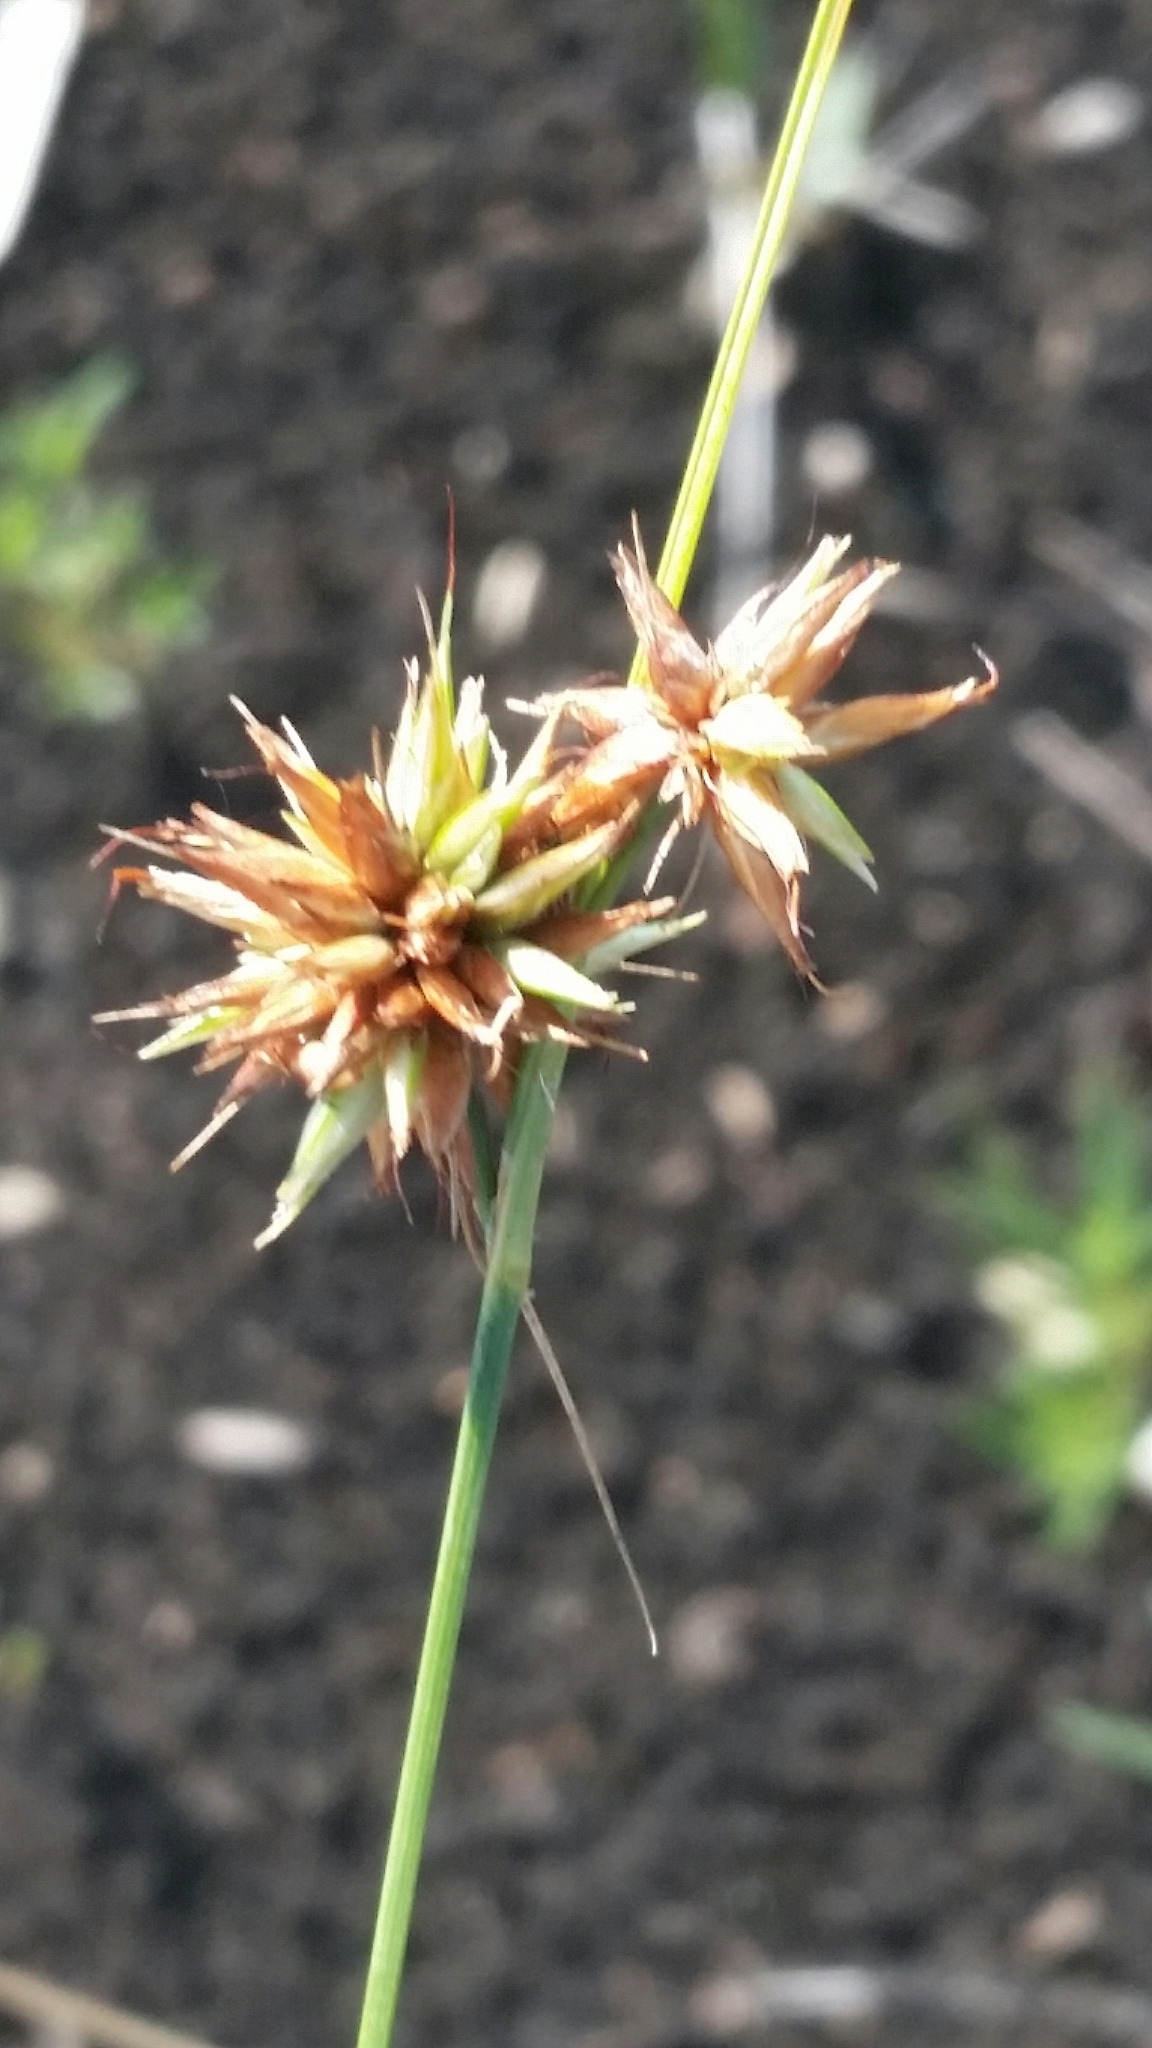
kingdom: Plantae
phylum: Tracheophyta
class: Liliopsida
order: Poales
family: Cyperaceae
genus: Rhynchospora
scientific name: Rhynchospora tracyi
